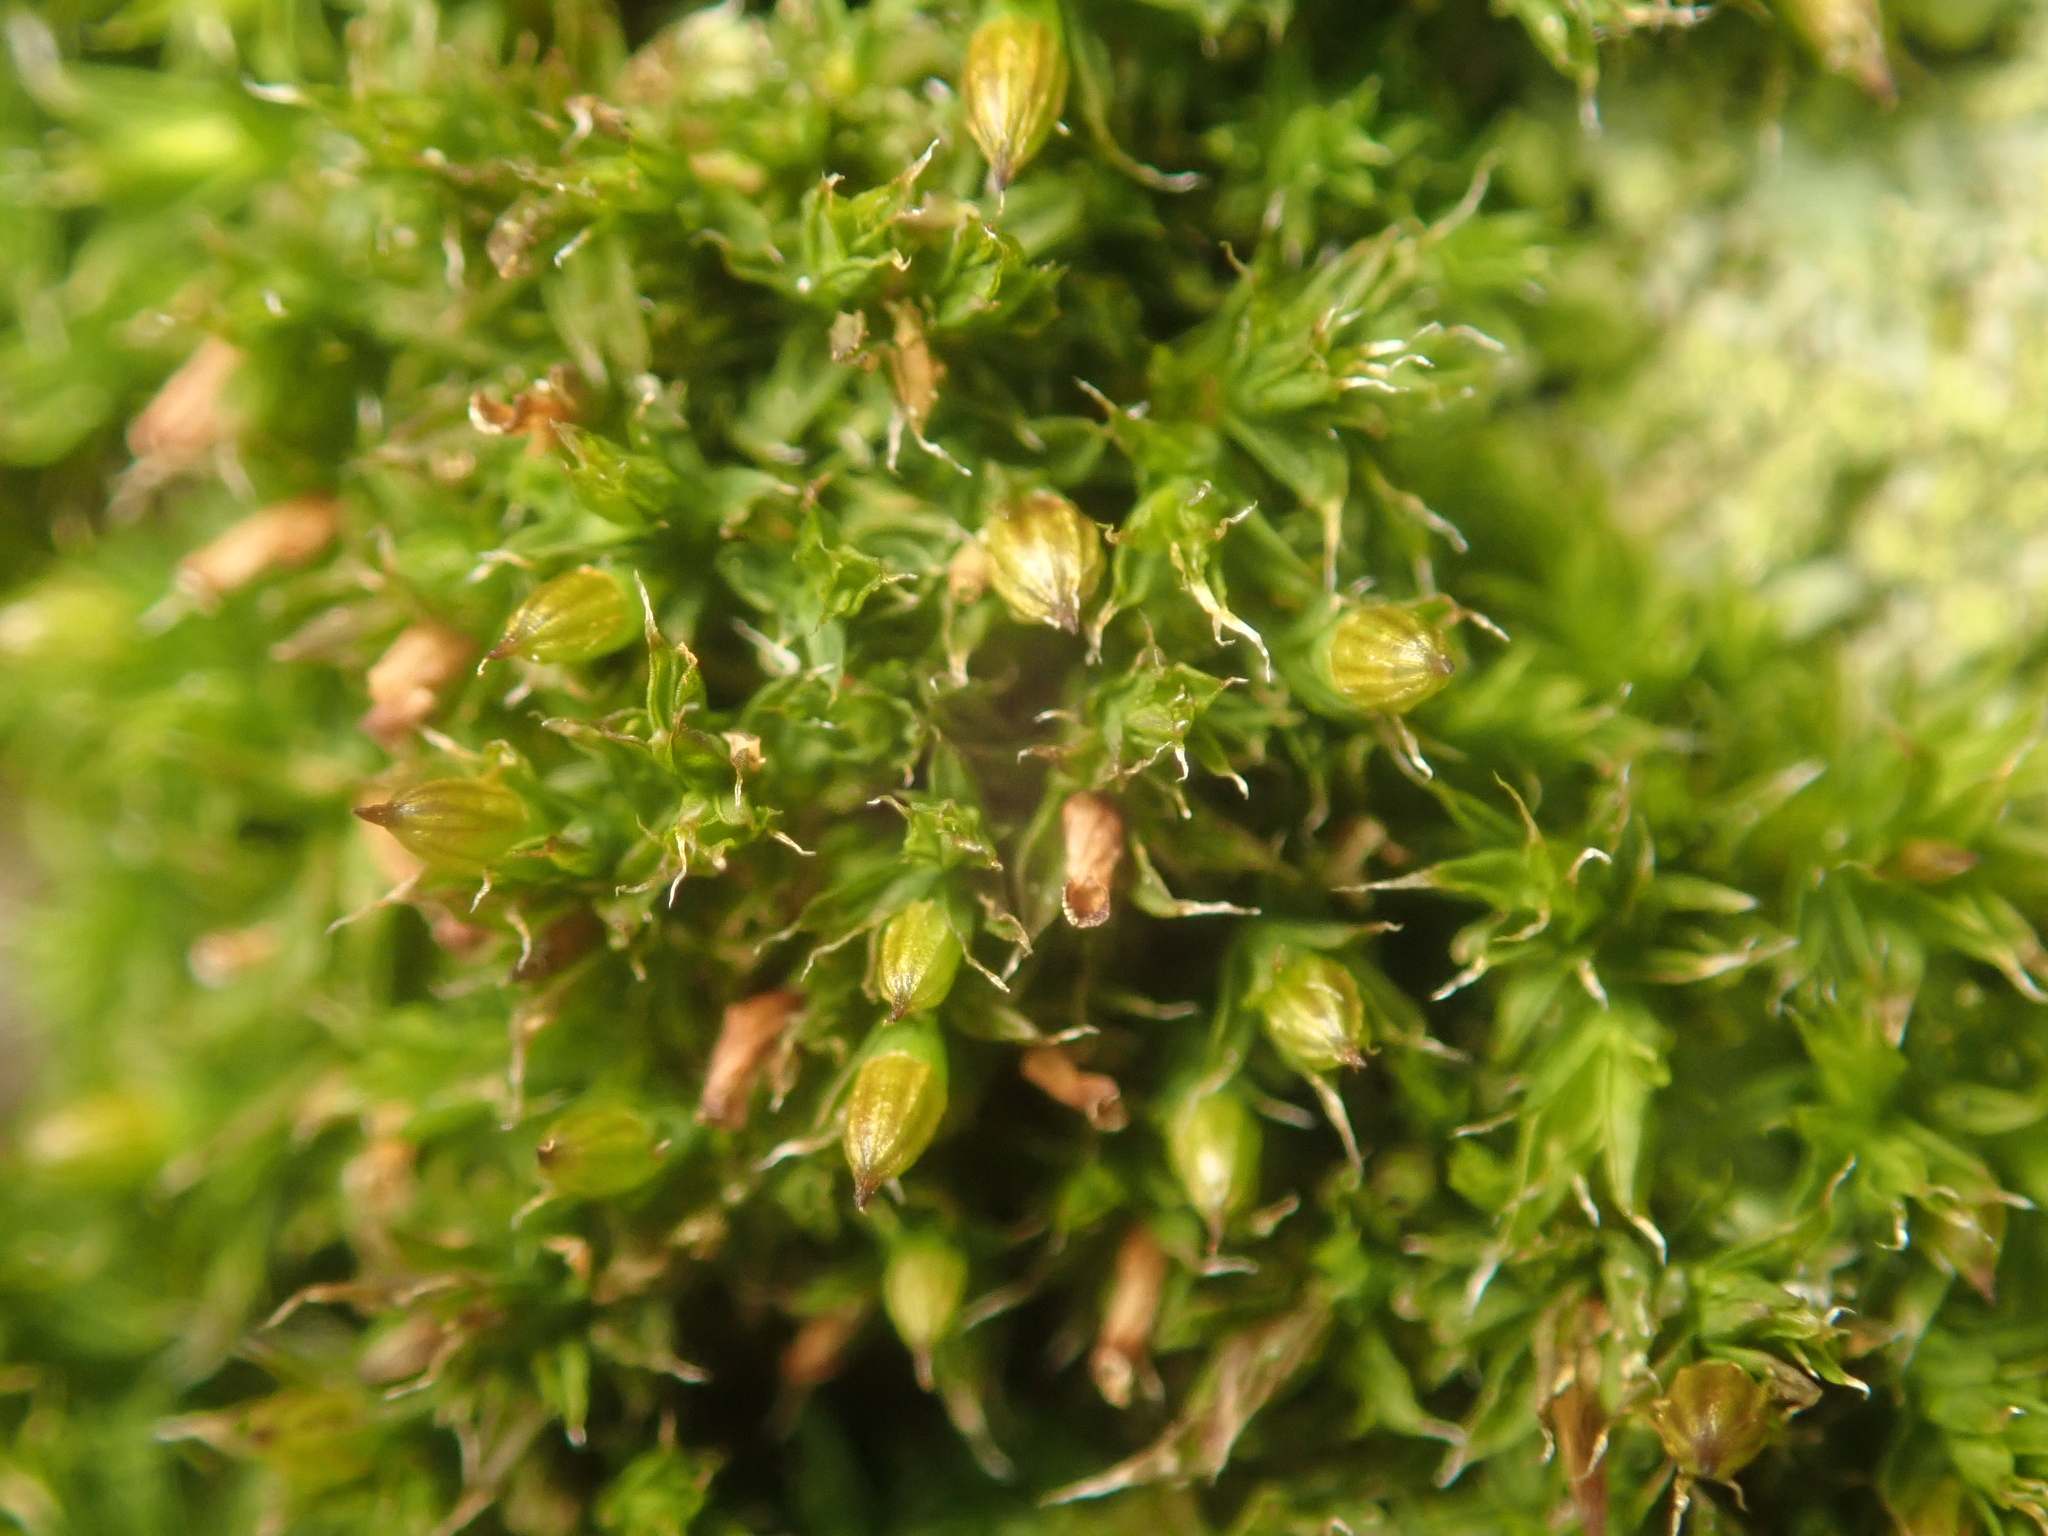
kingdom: Plantae
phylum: Bryophyta
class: Bryopsida
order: Orthotrichales
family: Orthotrichaceae
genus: Orthotrichum
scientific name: Orthotrichum diaphanum
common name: White-tipped bristle-moss
